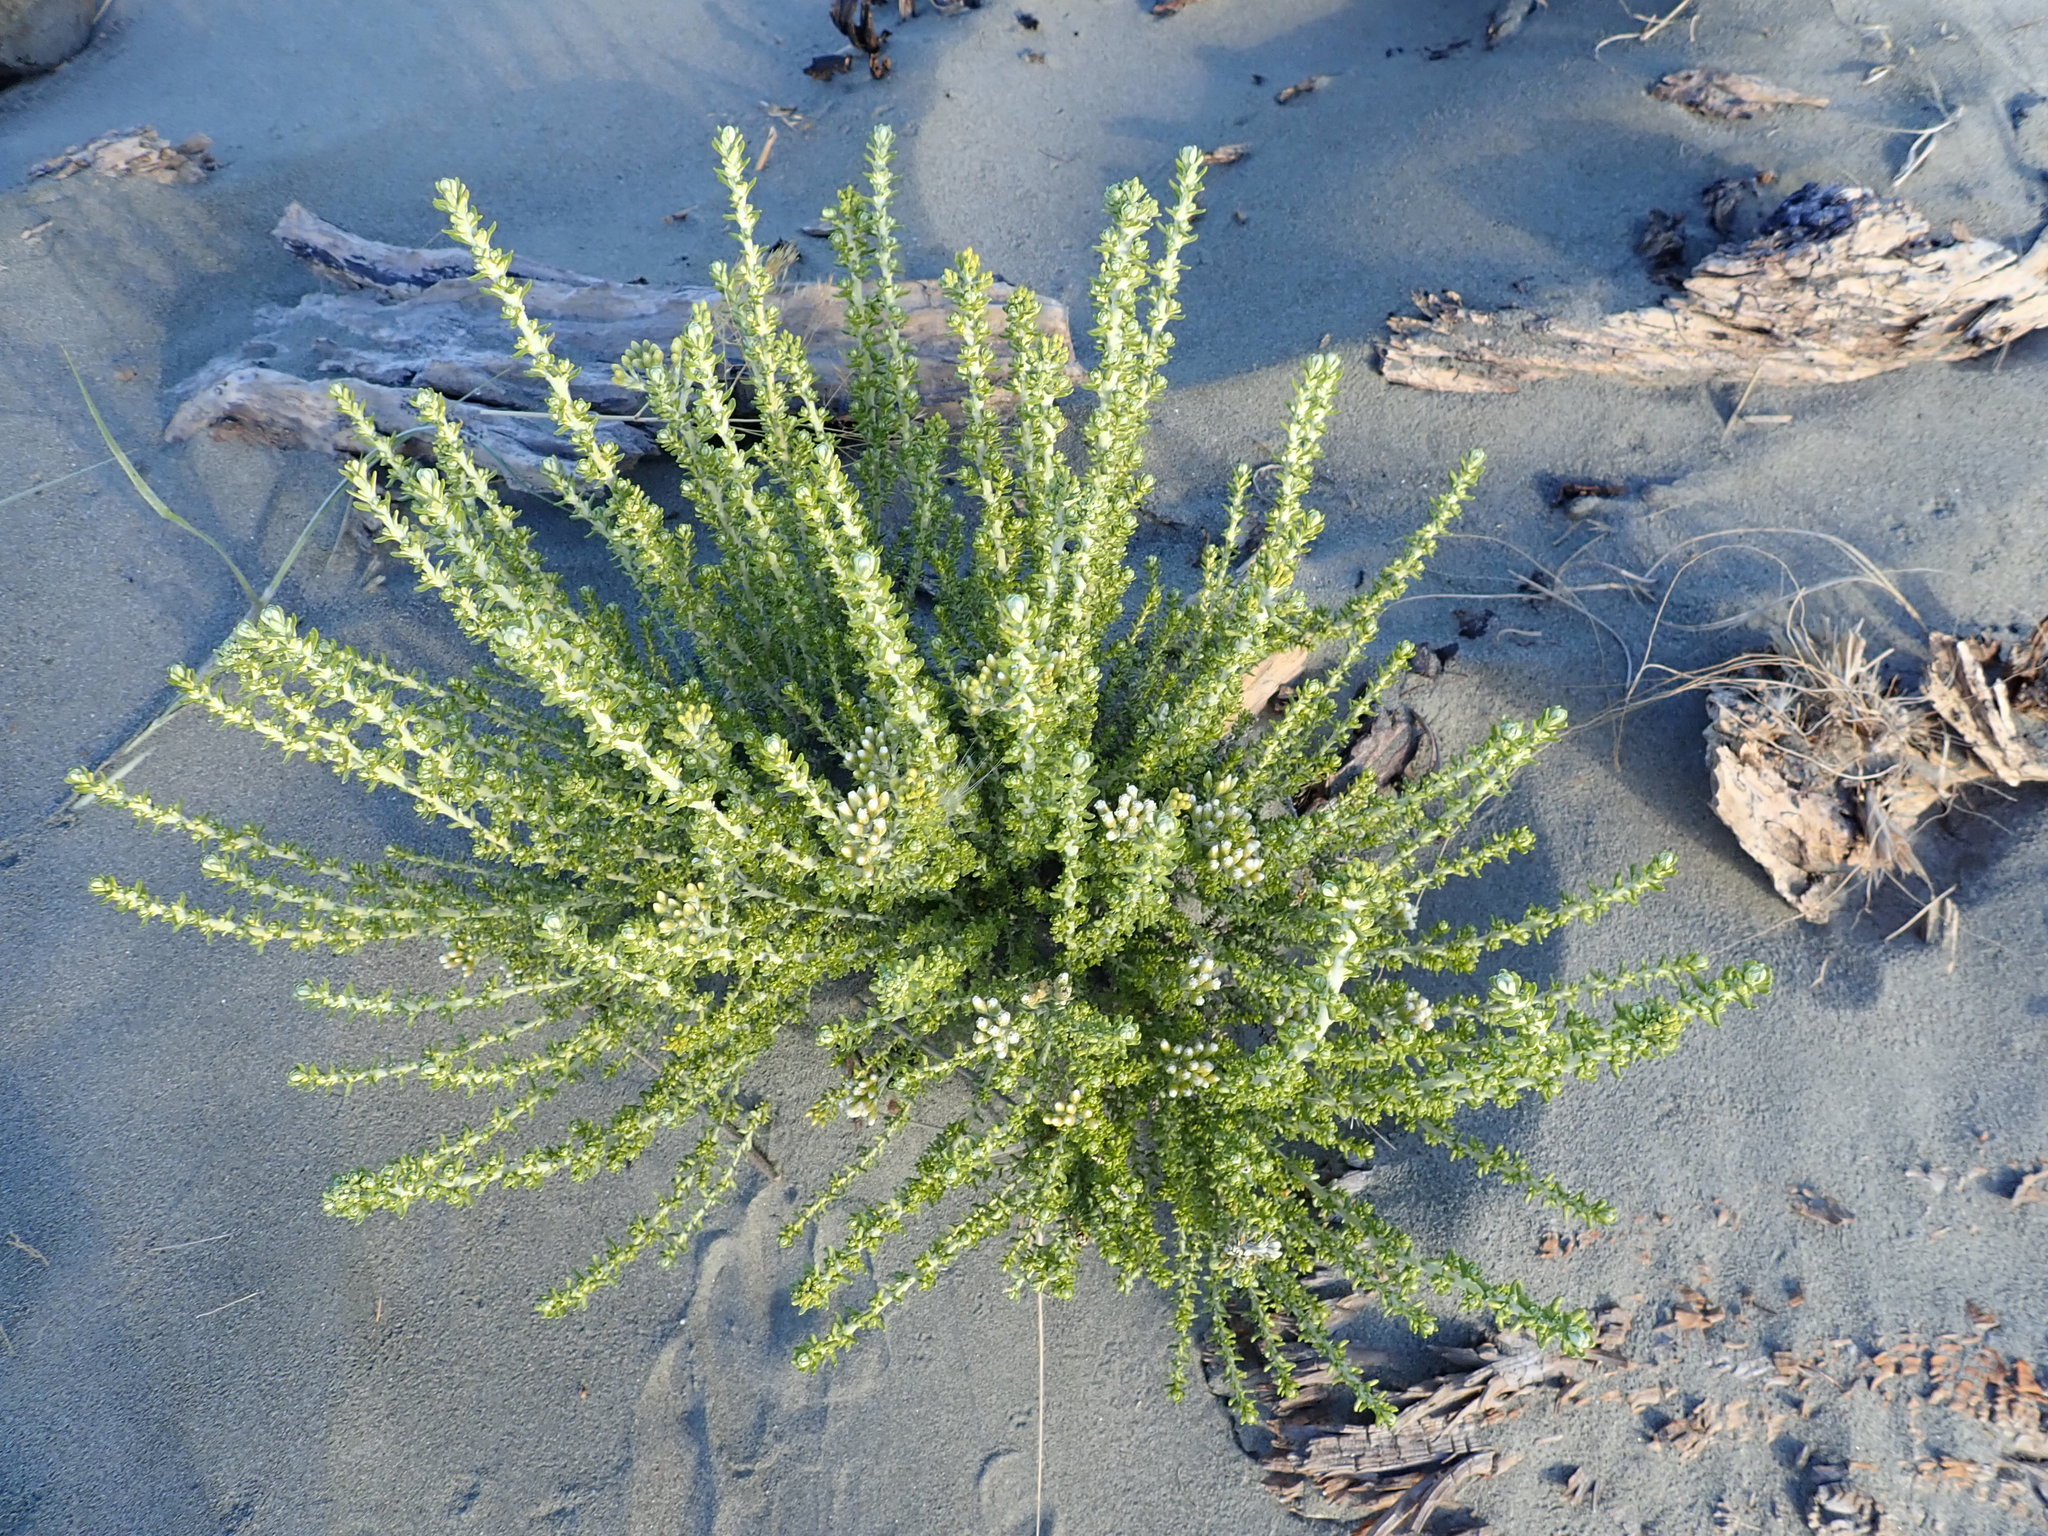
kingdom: Plantae
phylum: Tracheophyta
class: Magnoliopsida
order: Asterales
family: Asteraceae
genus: Ozothamnus
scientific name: Ozothamnus leptophyllus
